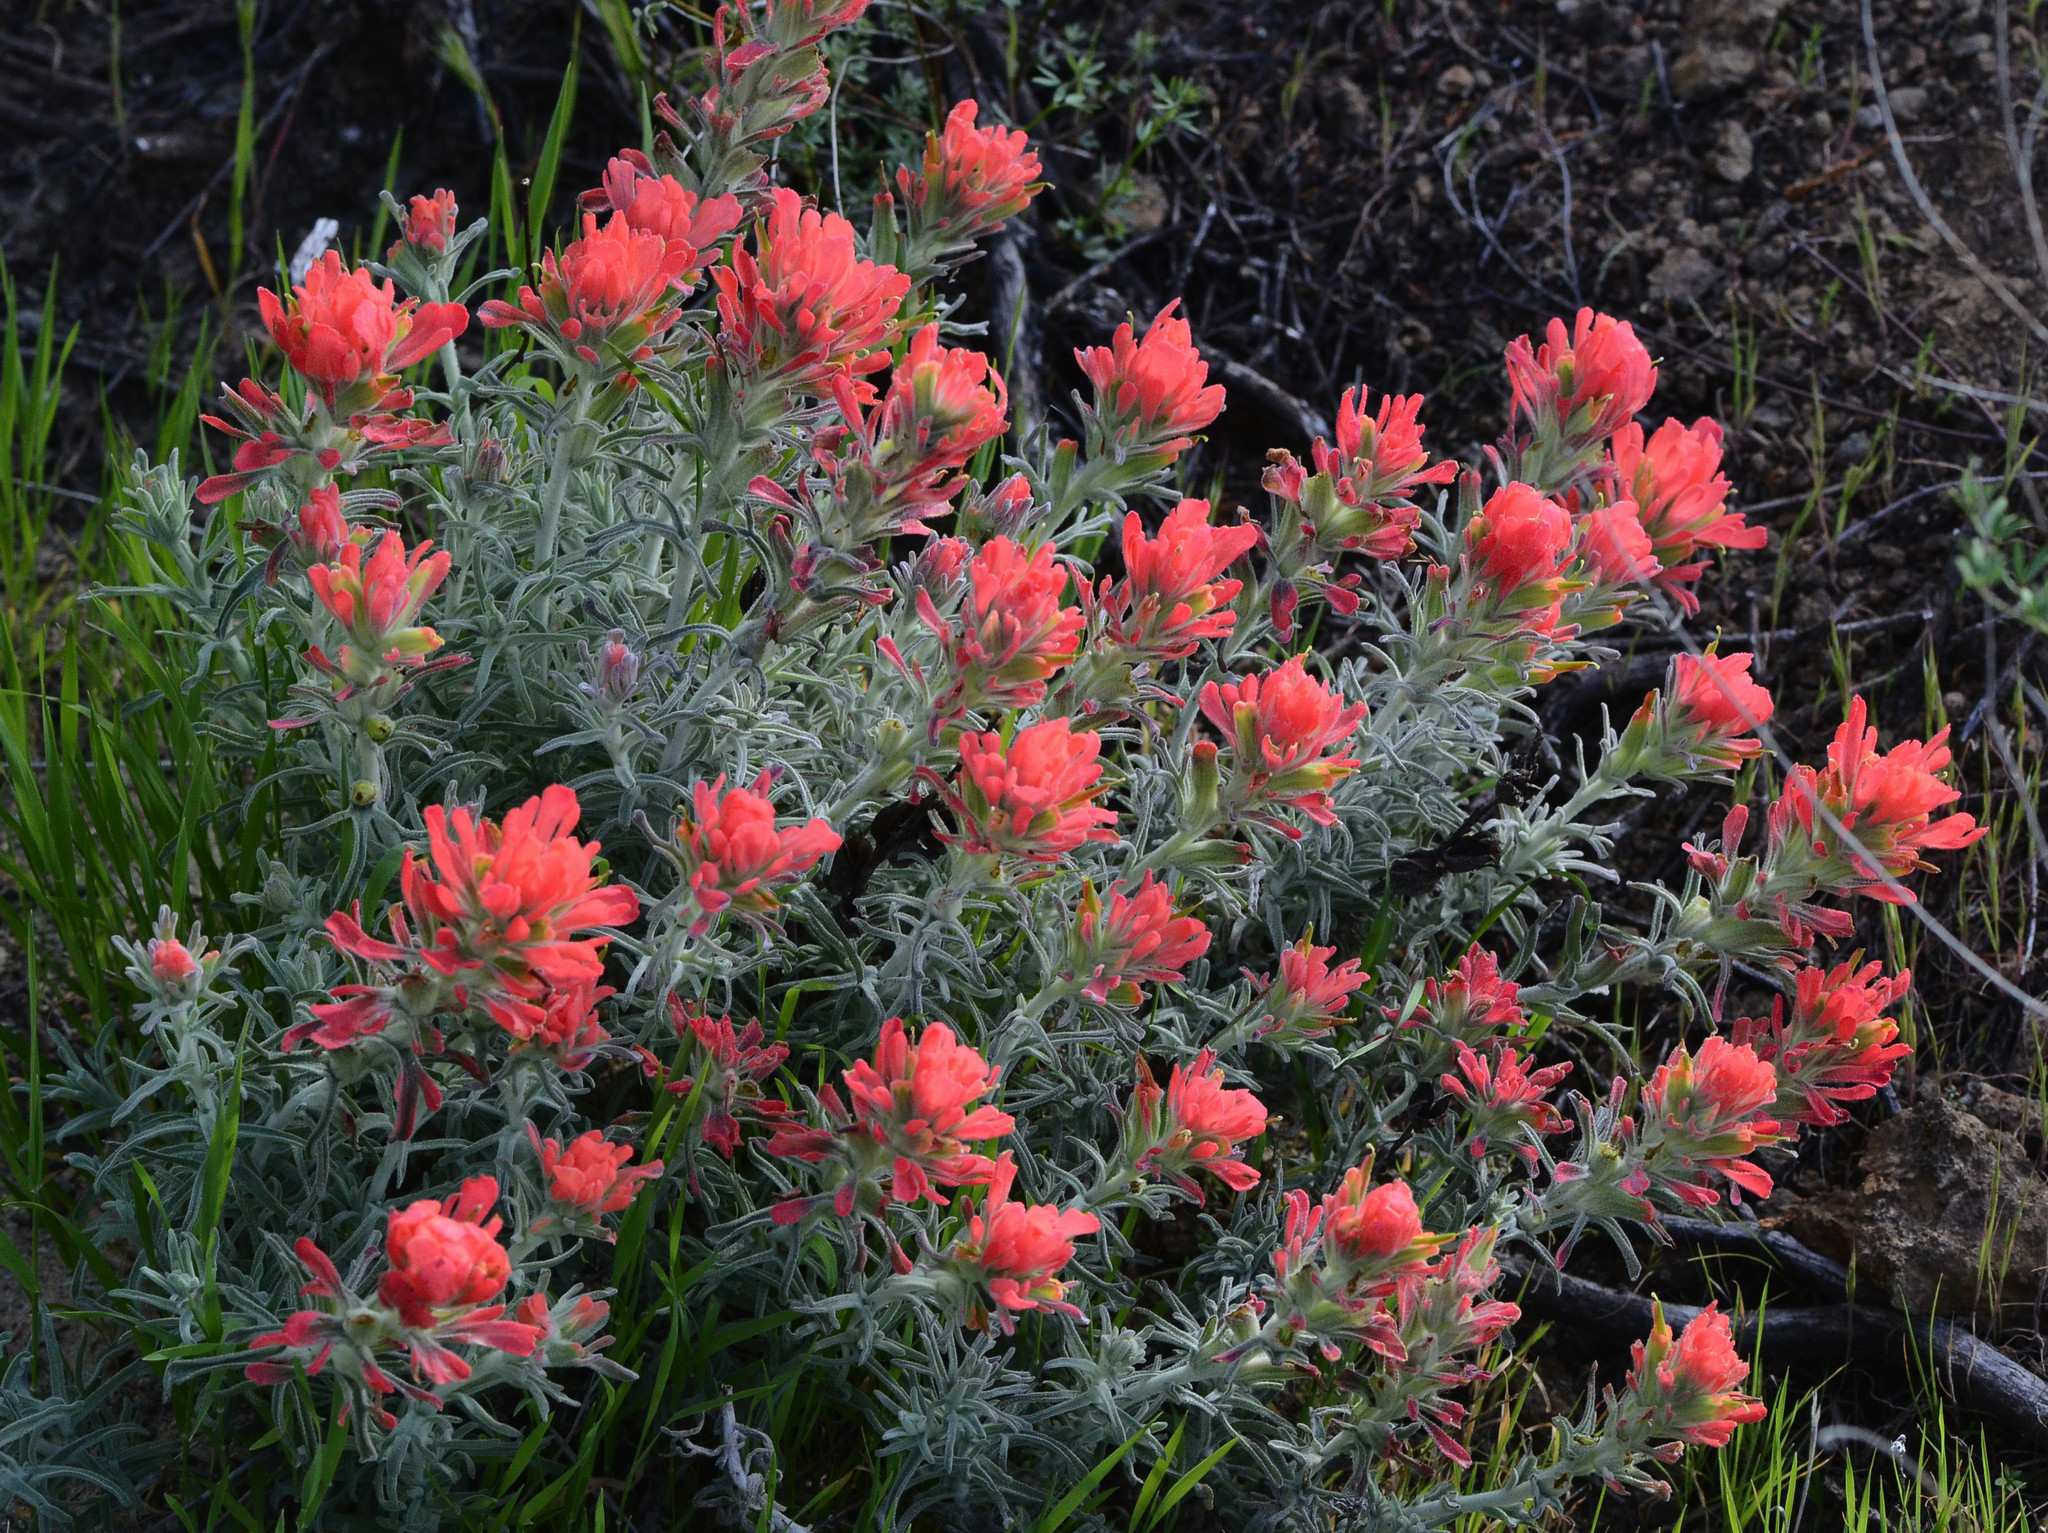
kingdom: Plantae
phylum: Tracheophyta
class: Magnoliopsida
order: Lamiales
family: Orobanchaceae
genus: Castilleja
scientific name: Castilleja foliolosa
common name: Woolly indian paintbrush
